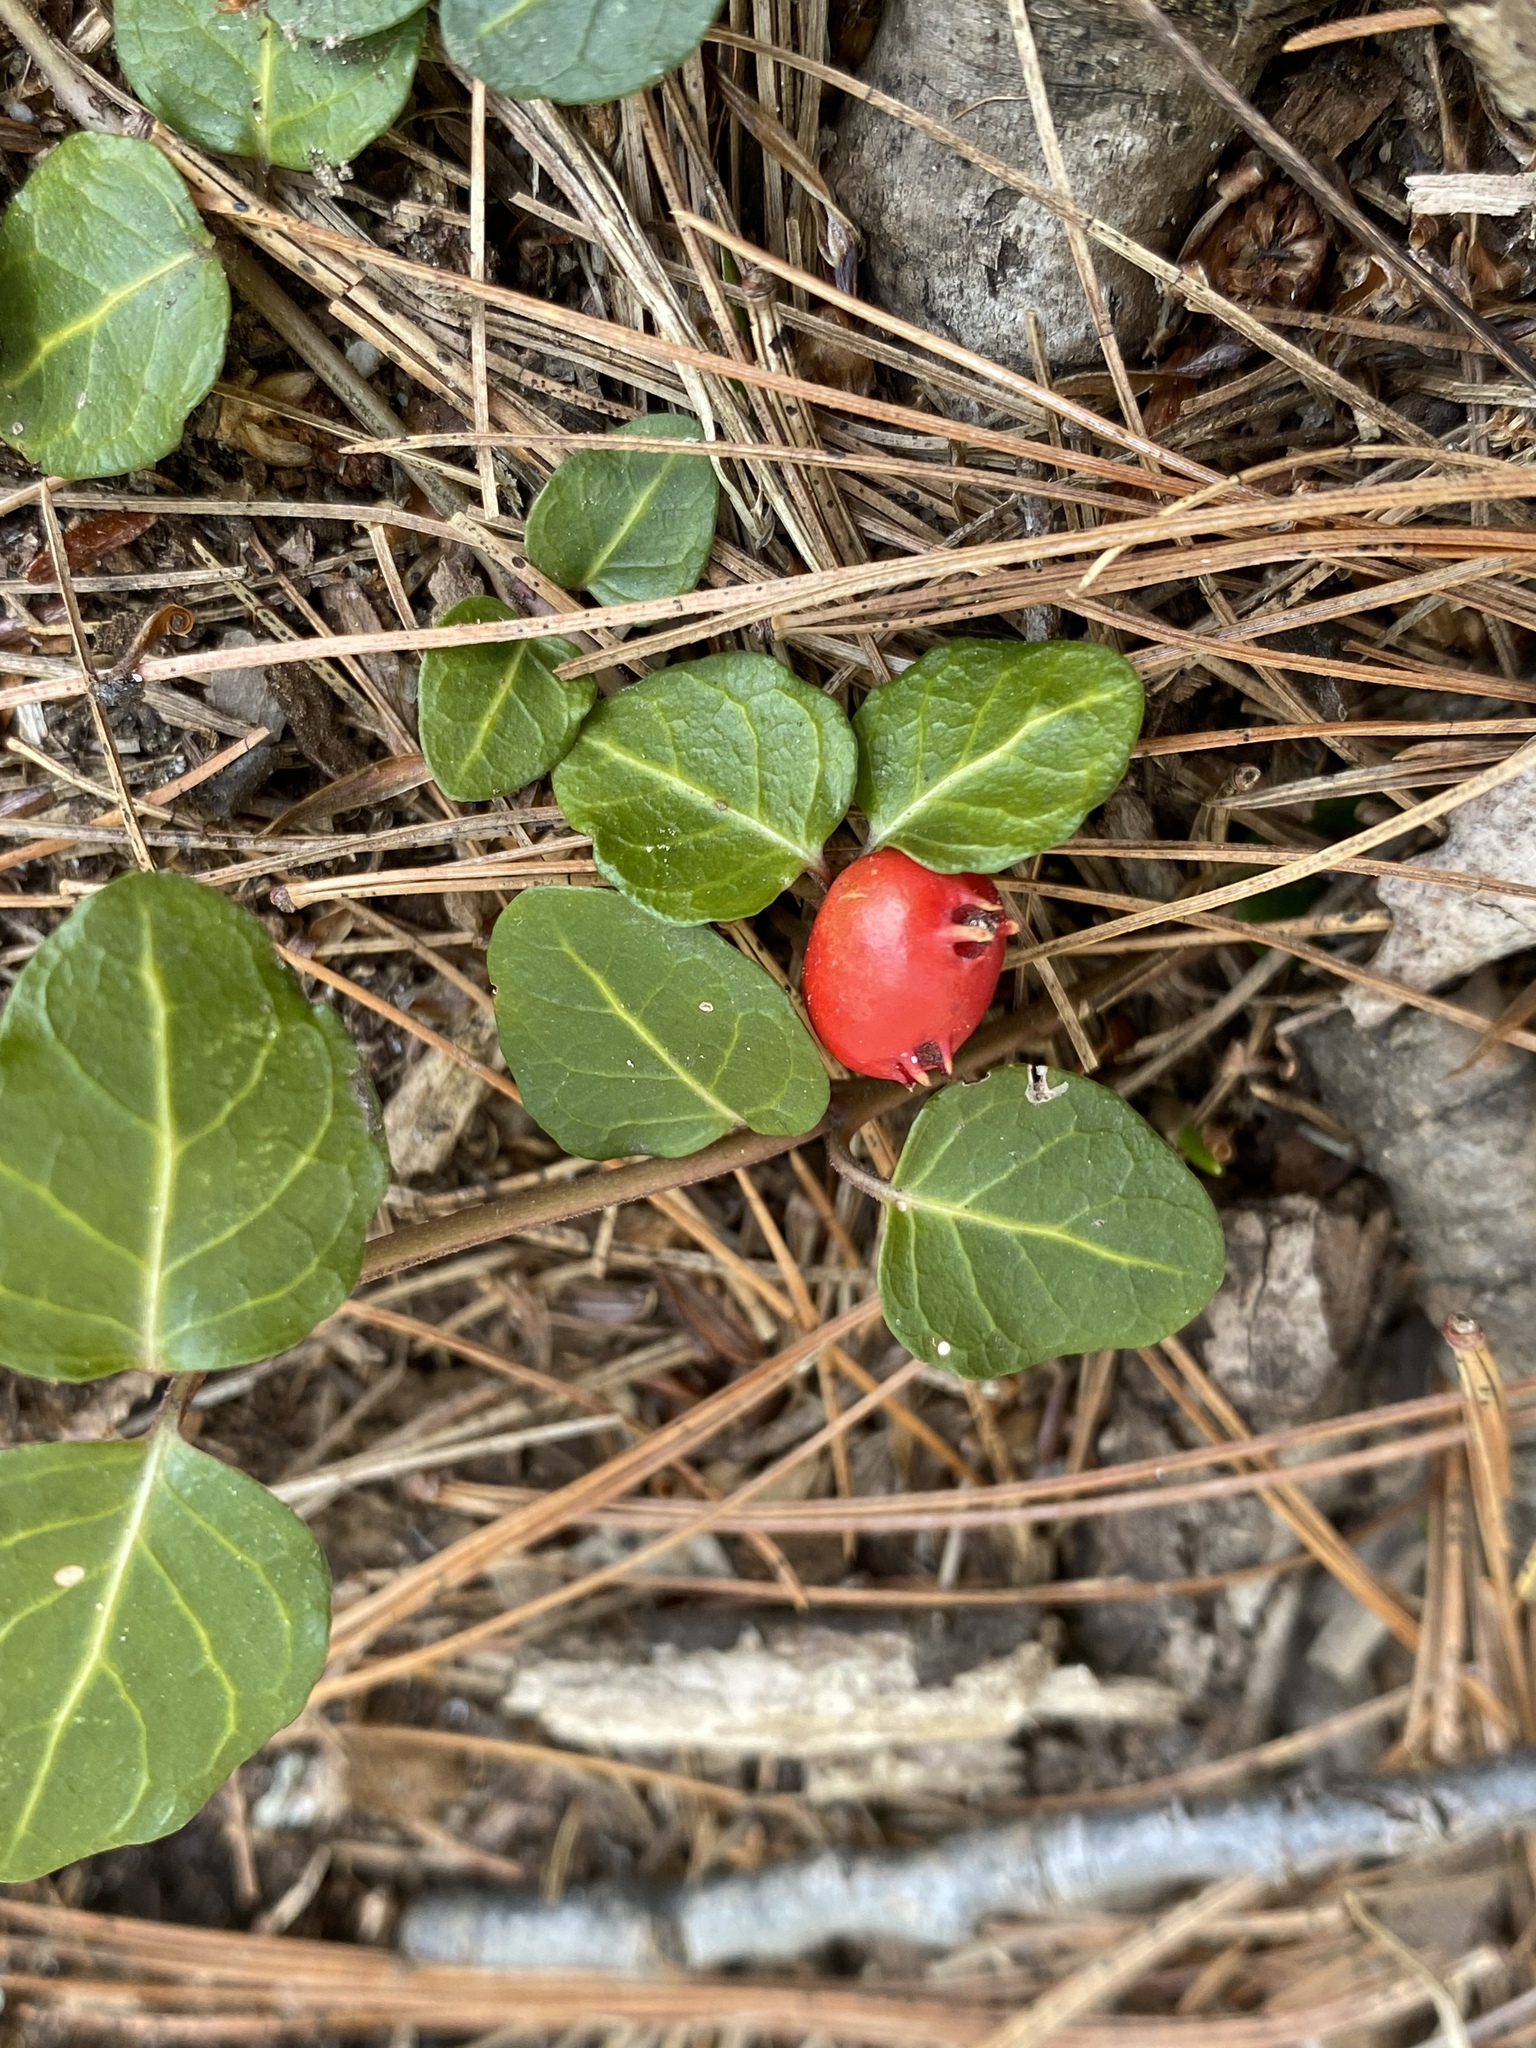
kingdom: Plantae
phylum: Tracheophyta
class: Magnoliopsida
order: Gentianales
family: Rubiaceae
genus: Mitchella
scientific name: Mitchella repens
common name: Partridge-berry
